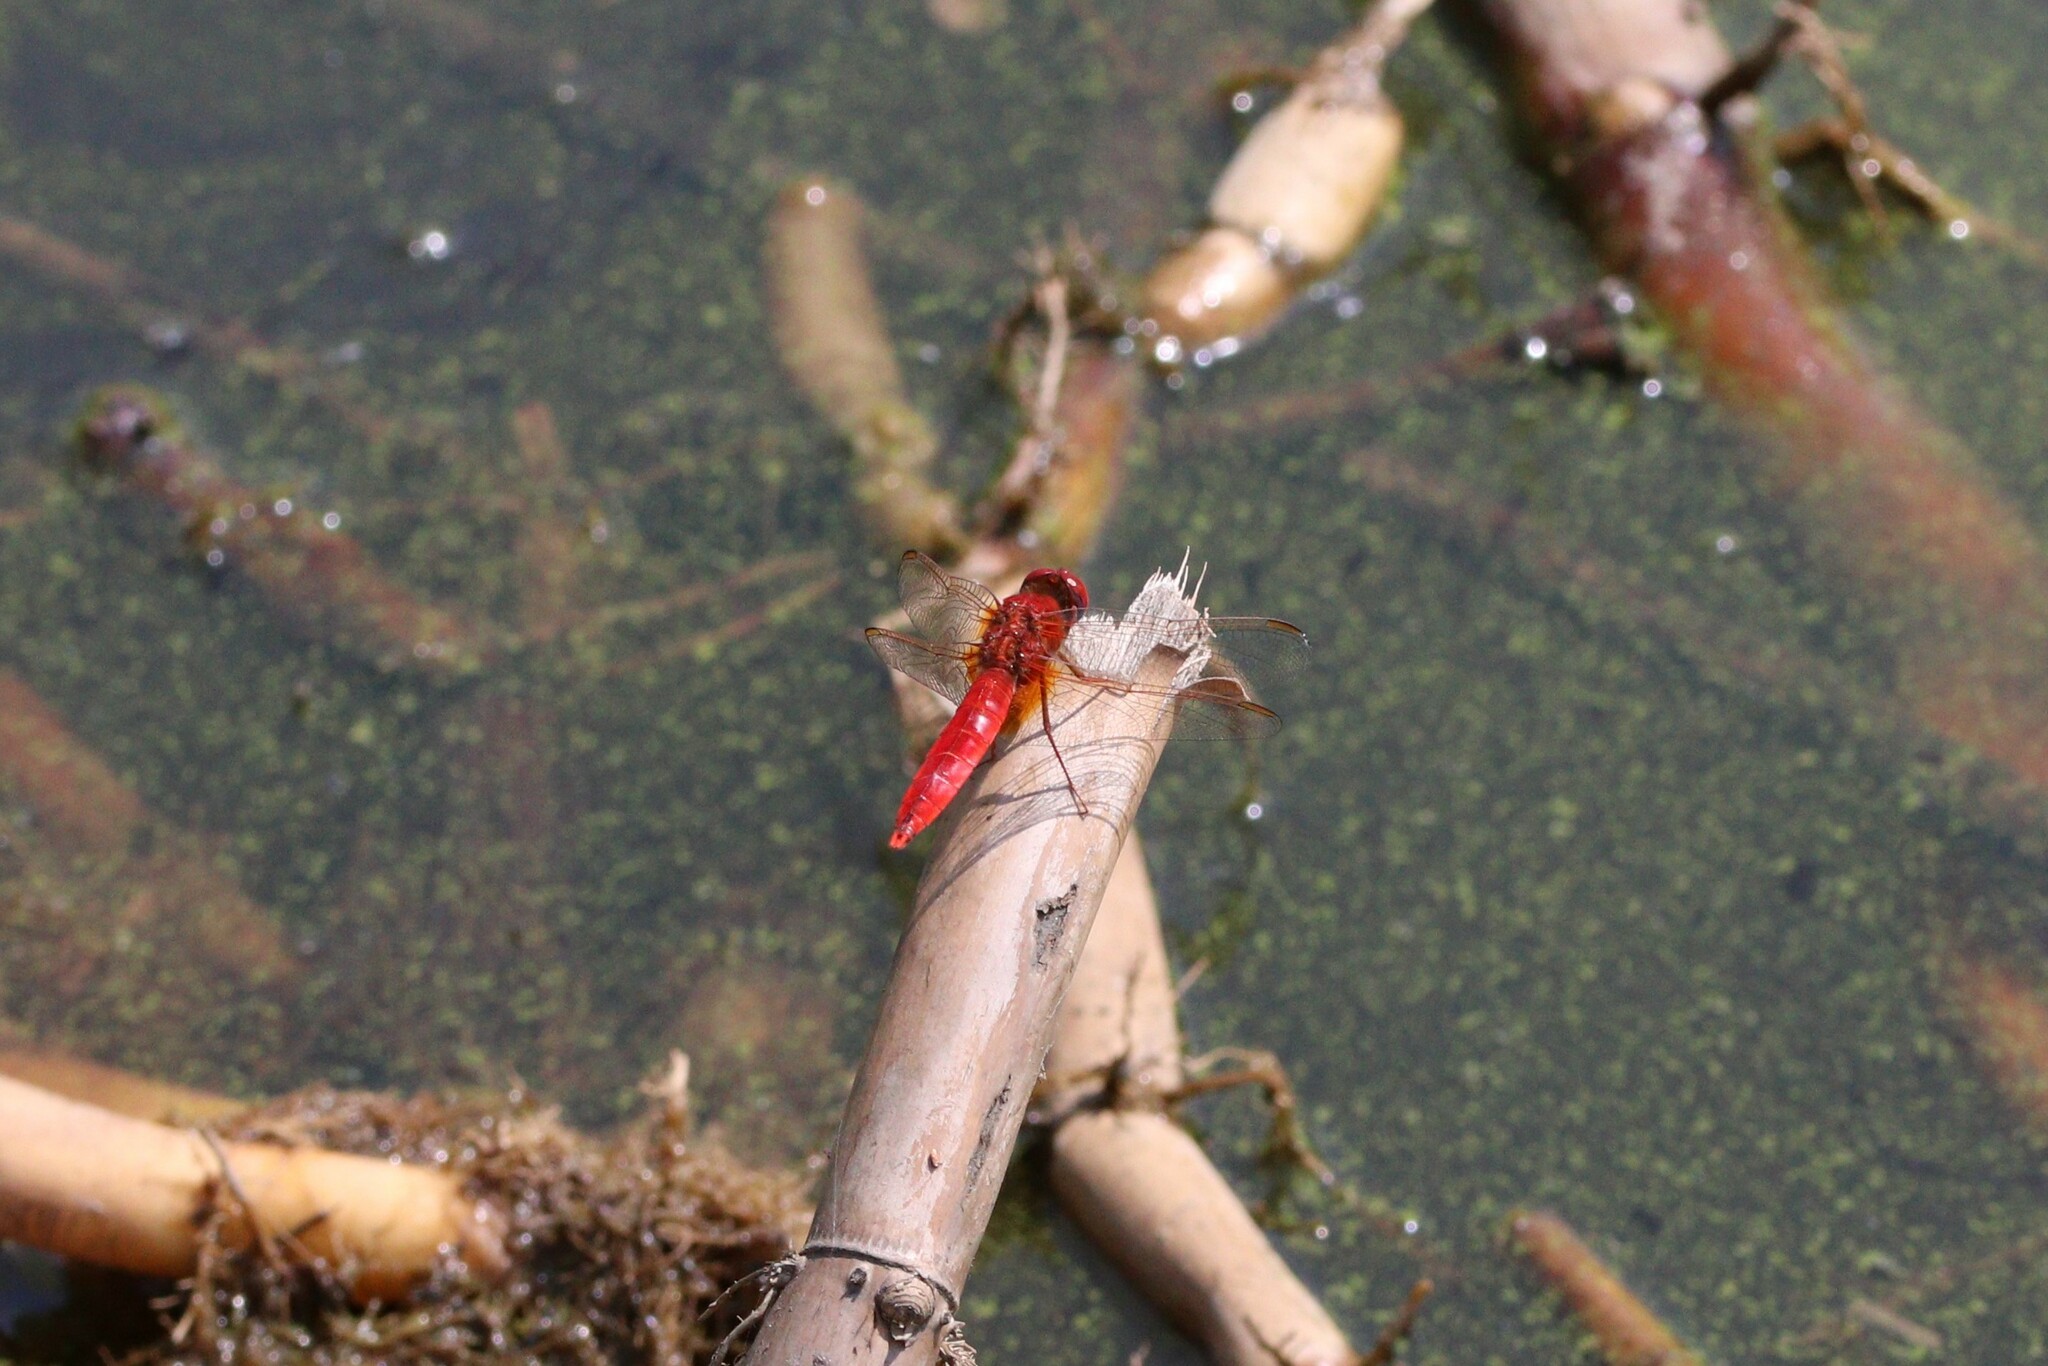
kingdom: Animalia
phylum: Arthropoda
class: Insecta
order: Odonata
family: Libellulidae
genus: Crocothemis
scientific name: Crocothemis erythraea
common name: Scarlet dragonfly
